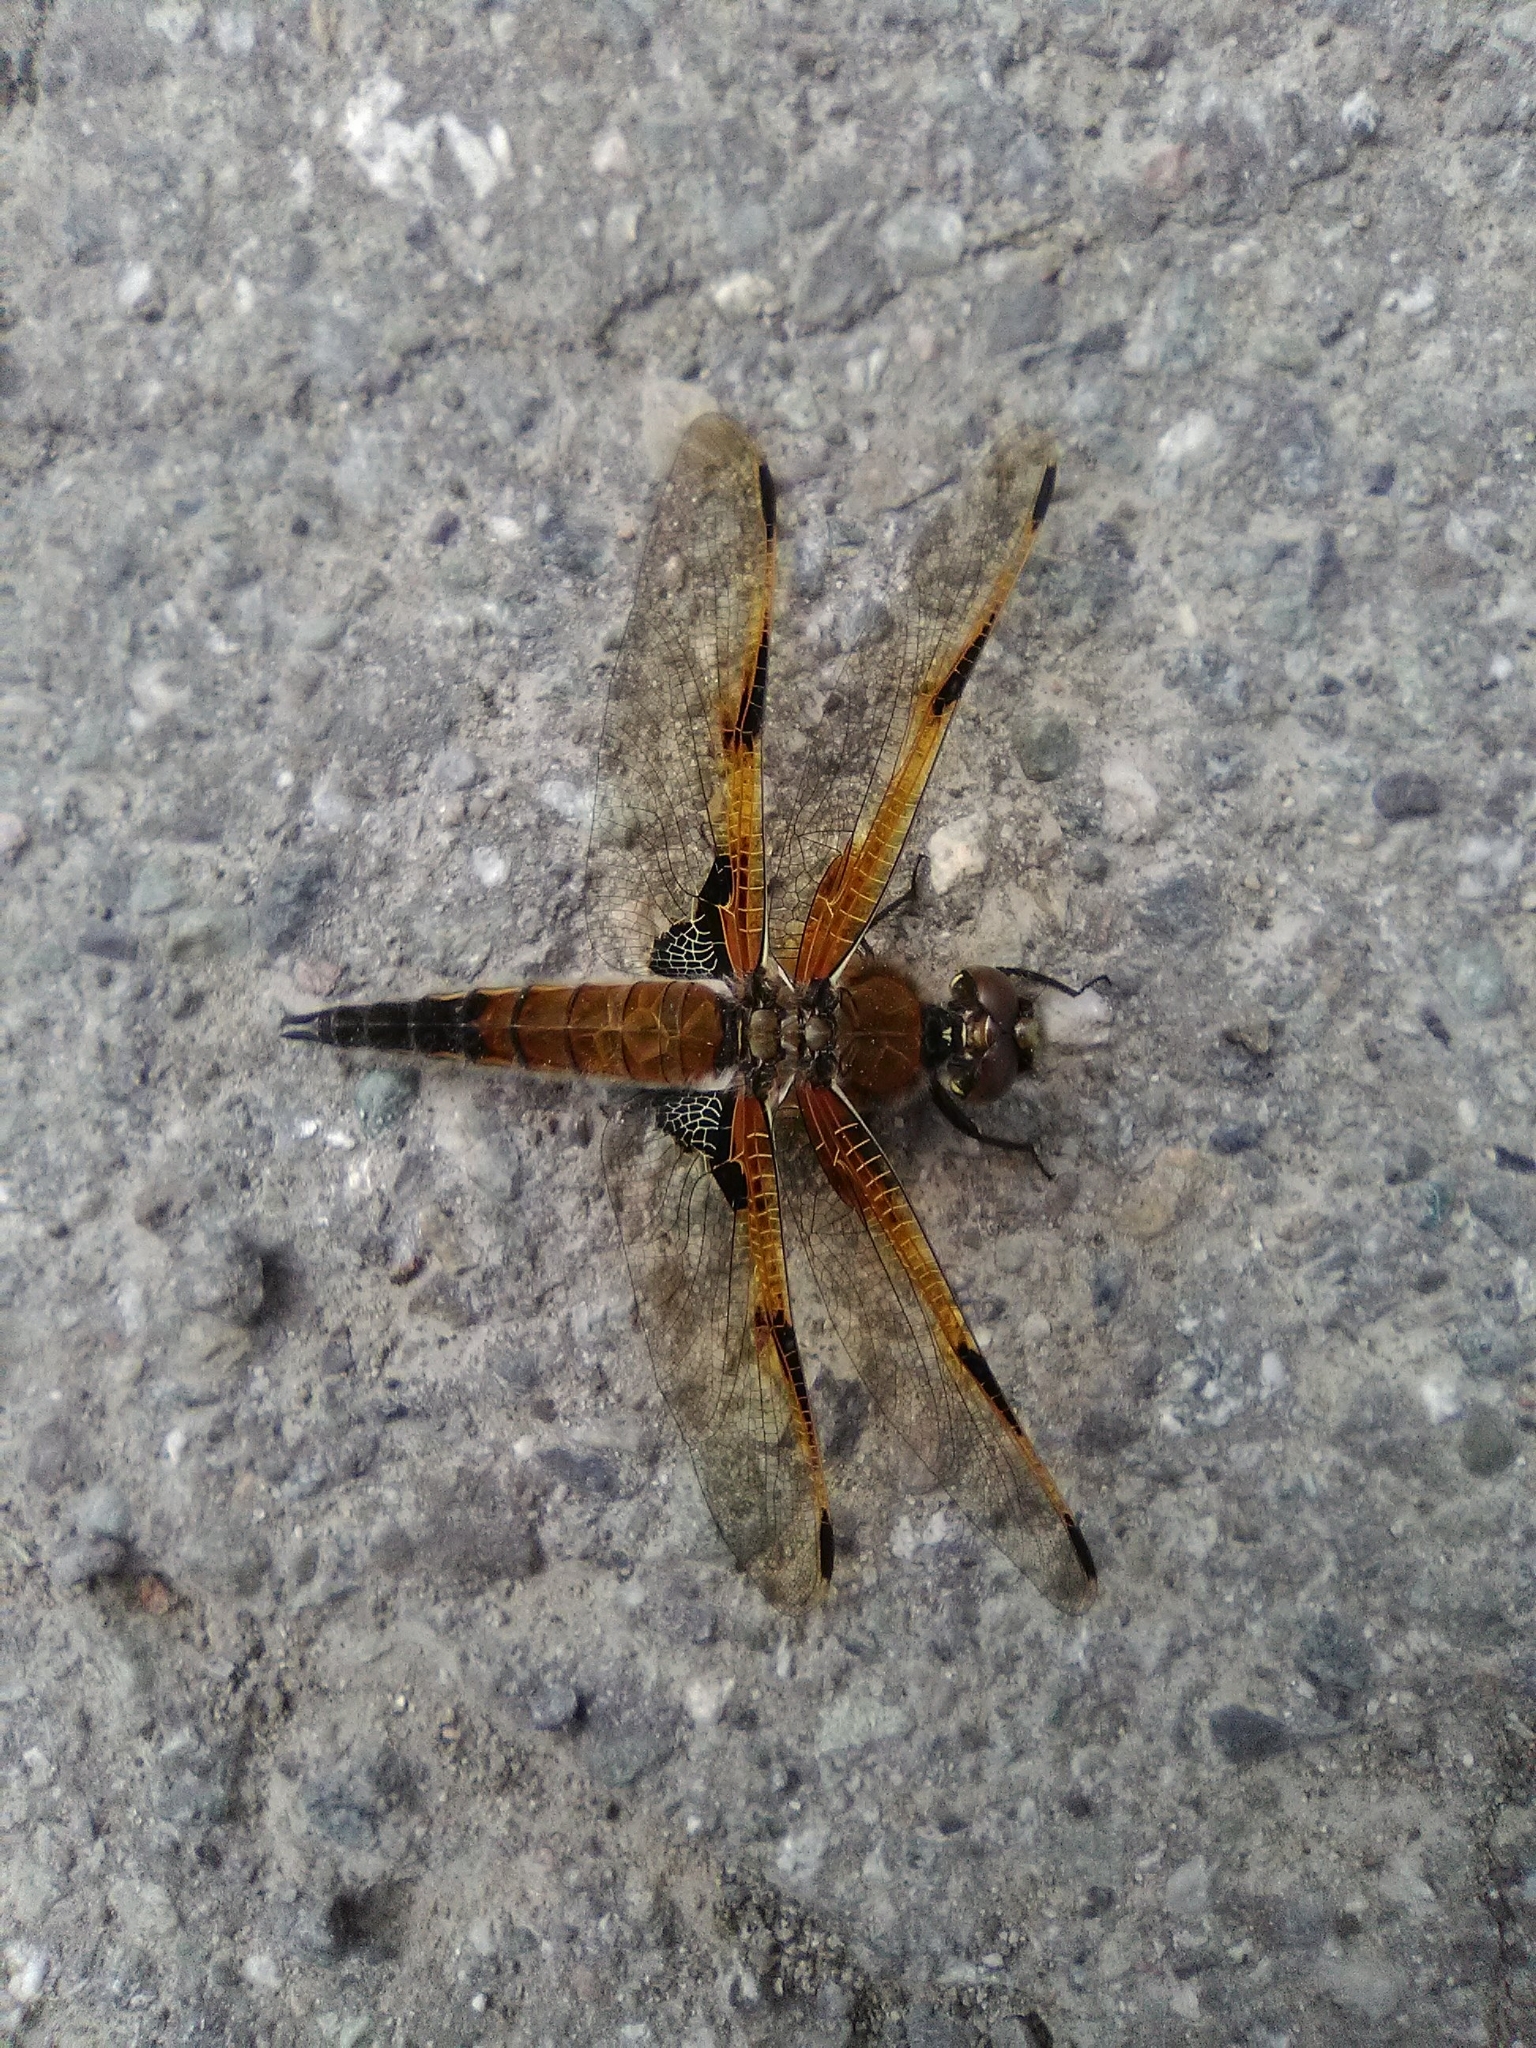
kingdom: Animalia
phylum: Arthropoda
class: Insecta
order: Odonata
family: Libellulidae
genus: Libellula
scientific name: Libellula quadrimaculata
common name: Four-spotted chaser
